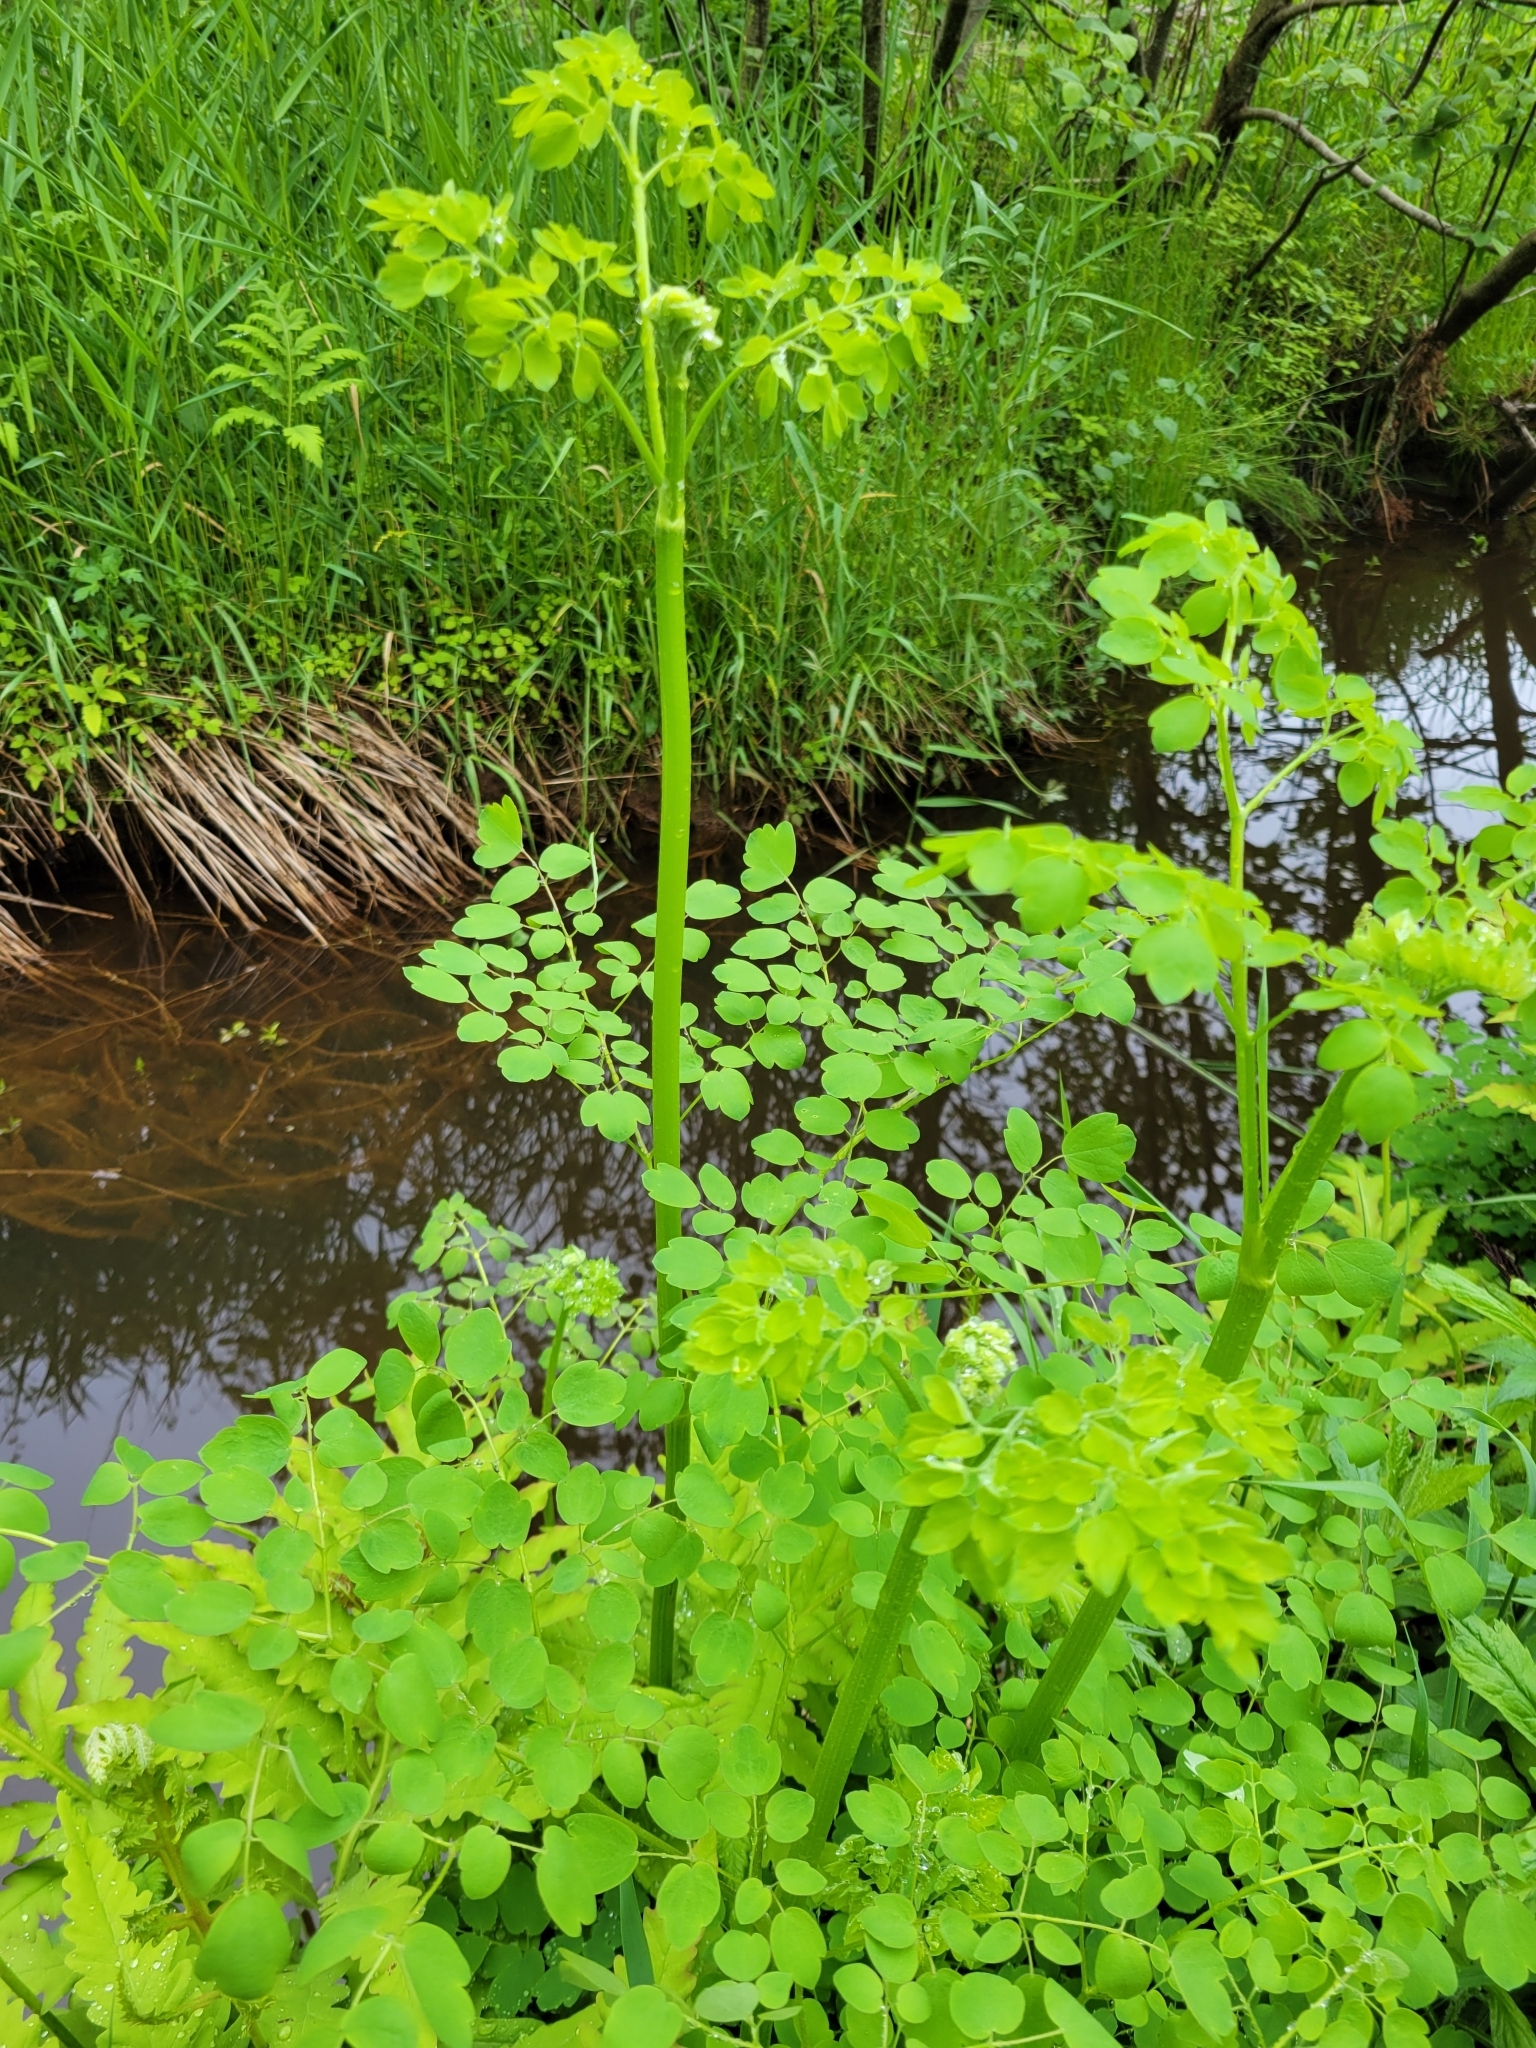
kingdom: Plantae
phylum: Tracheophyta
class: Magnoliopsida
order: Ranunculales
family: Ranunculaceae
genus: Thalictrum
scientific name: Thalictrum pubescens
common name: King-of-the-meadow
